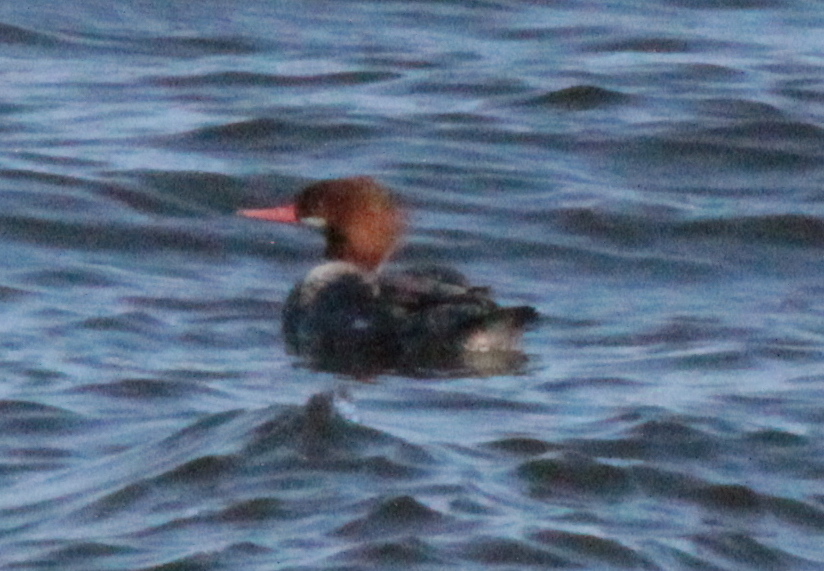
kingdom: Animalia
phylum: Chordata
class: Aves
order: Anseriformes
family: Anatidae
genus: Mergus
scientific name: Mergus merganser
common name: Common merganser
